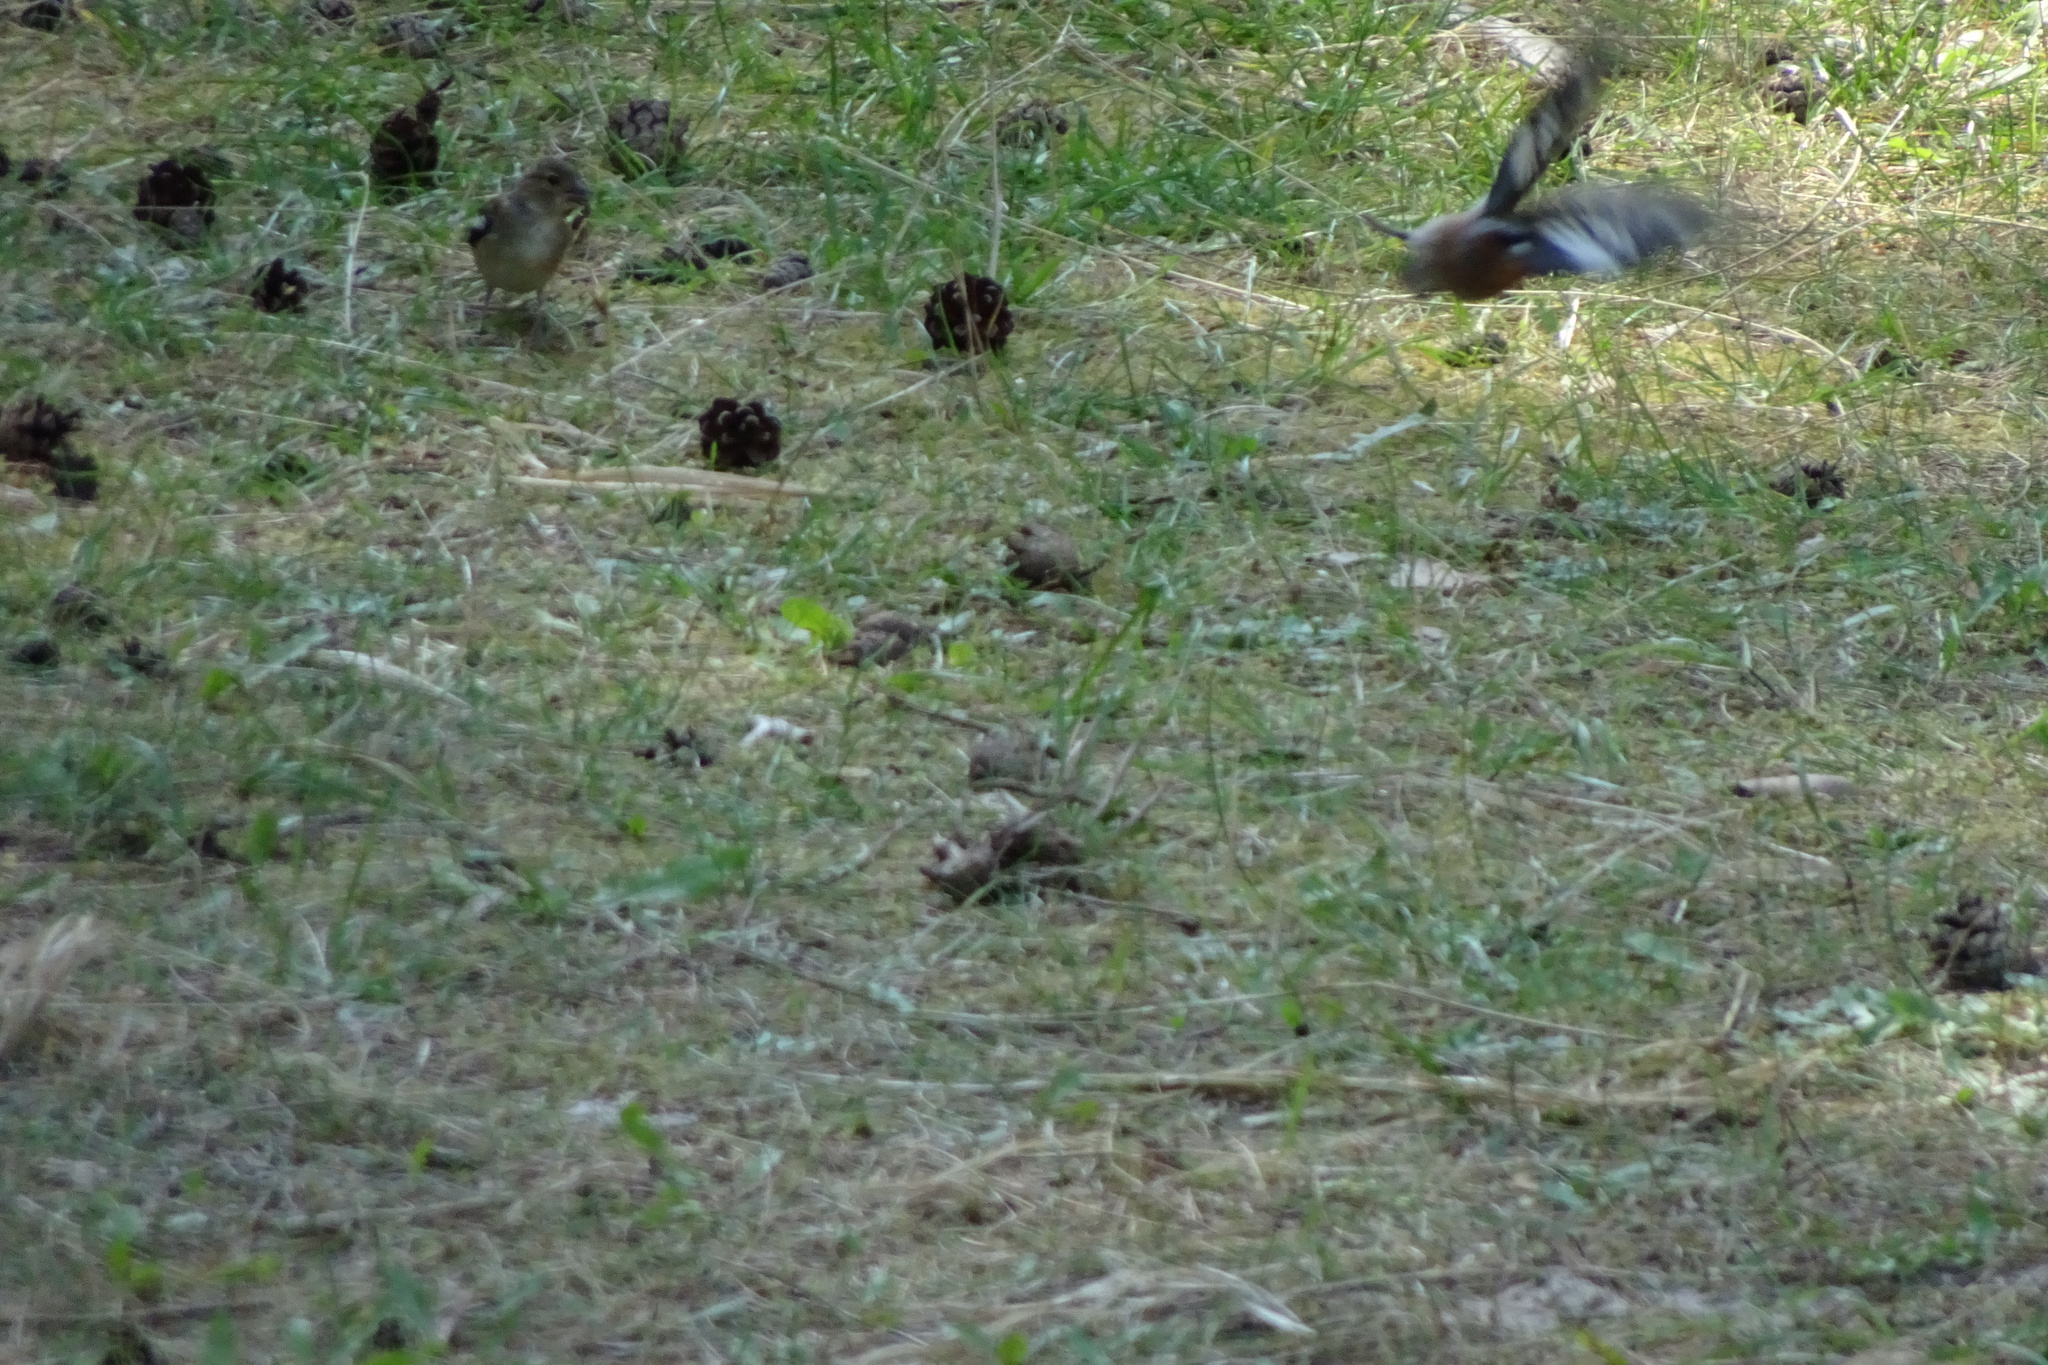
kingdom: Animalia
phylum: Chordata
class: Aves
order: Passeriformes
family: Fringillidae
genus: Fringilla
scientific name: Fringilla coelebs
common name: Common chaffinch
